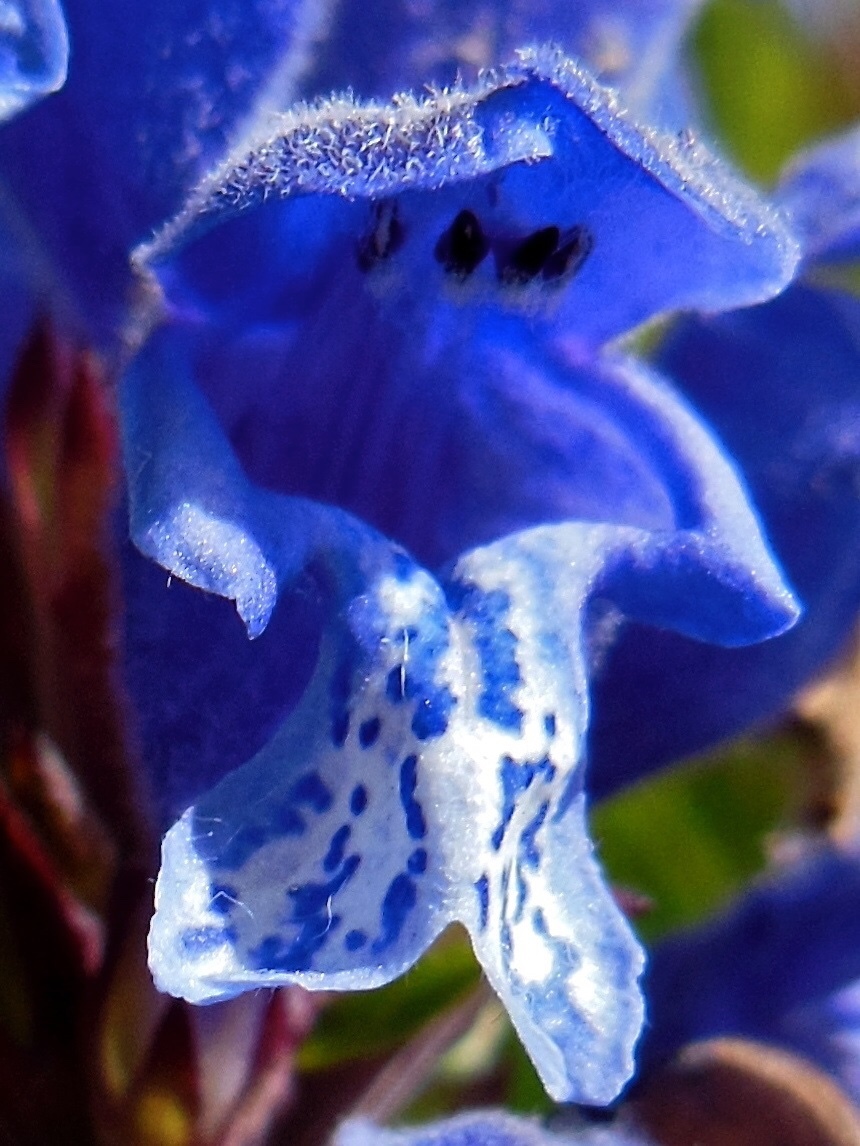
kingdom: Plantae
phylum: Tracheophyta
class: Magnoliopsida
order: Lamiales
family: Lamiaceae
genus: Dracocephalum
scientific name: Dracocephalum ruyschiana
